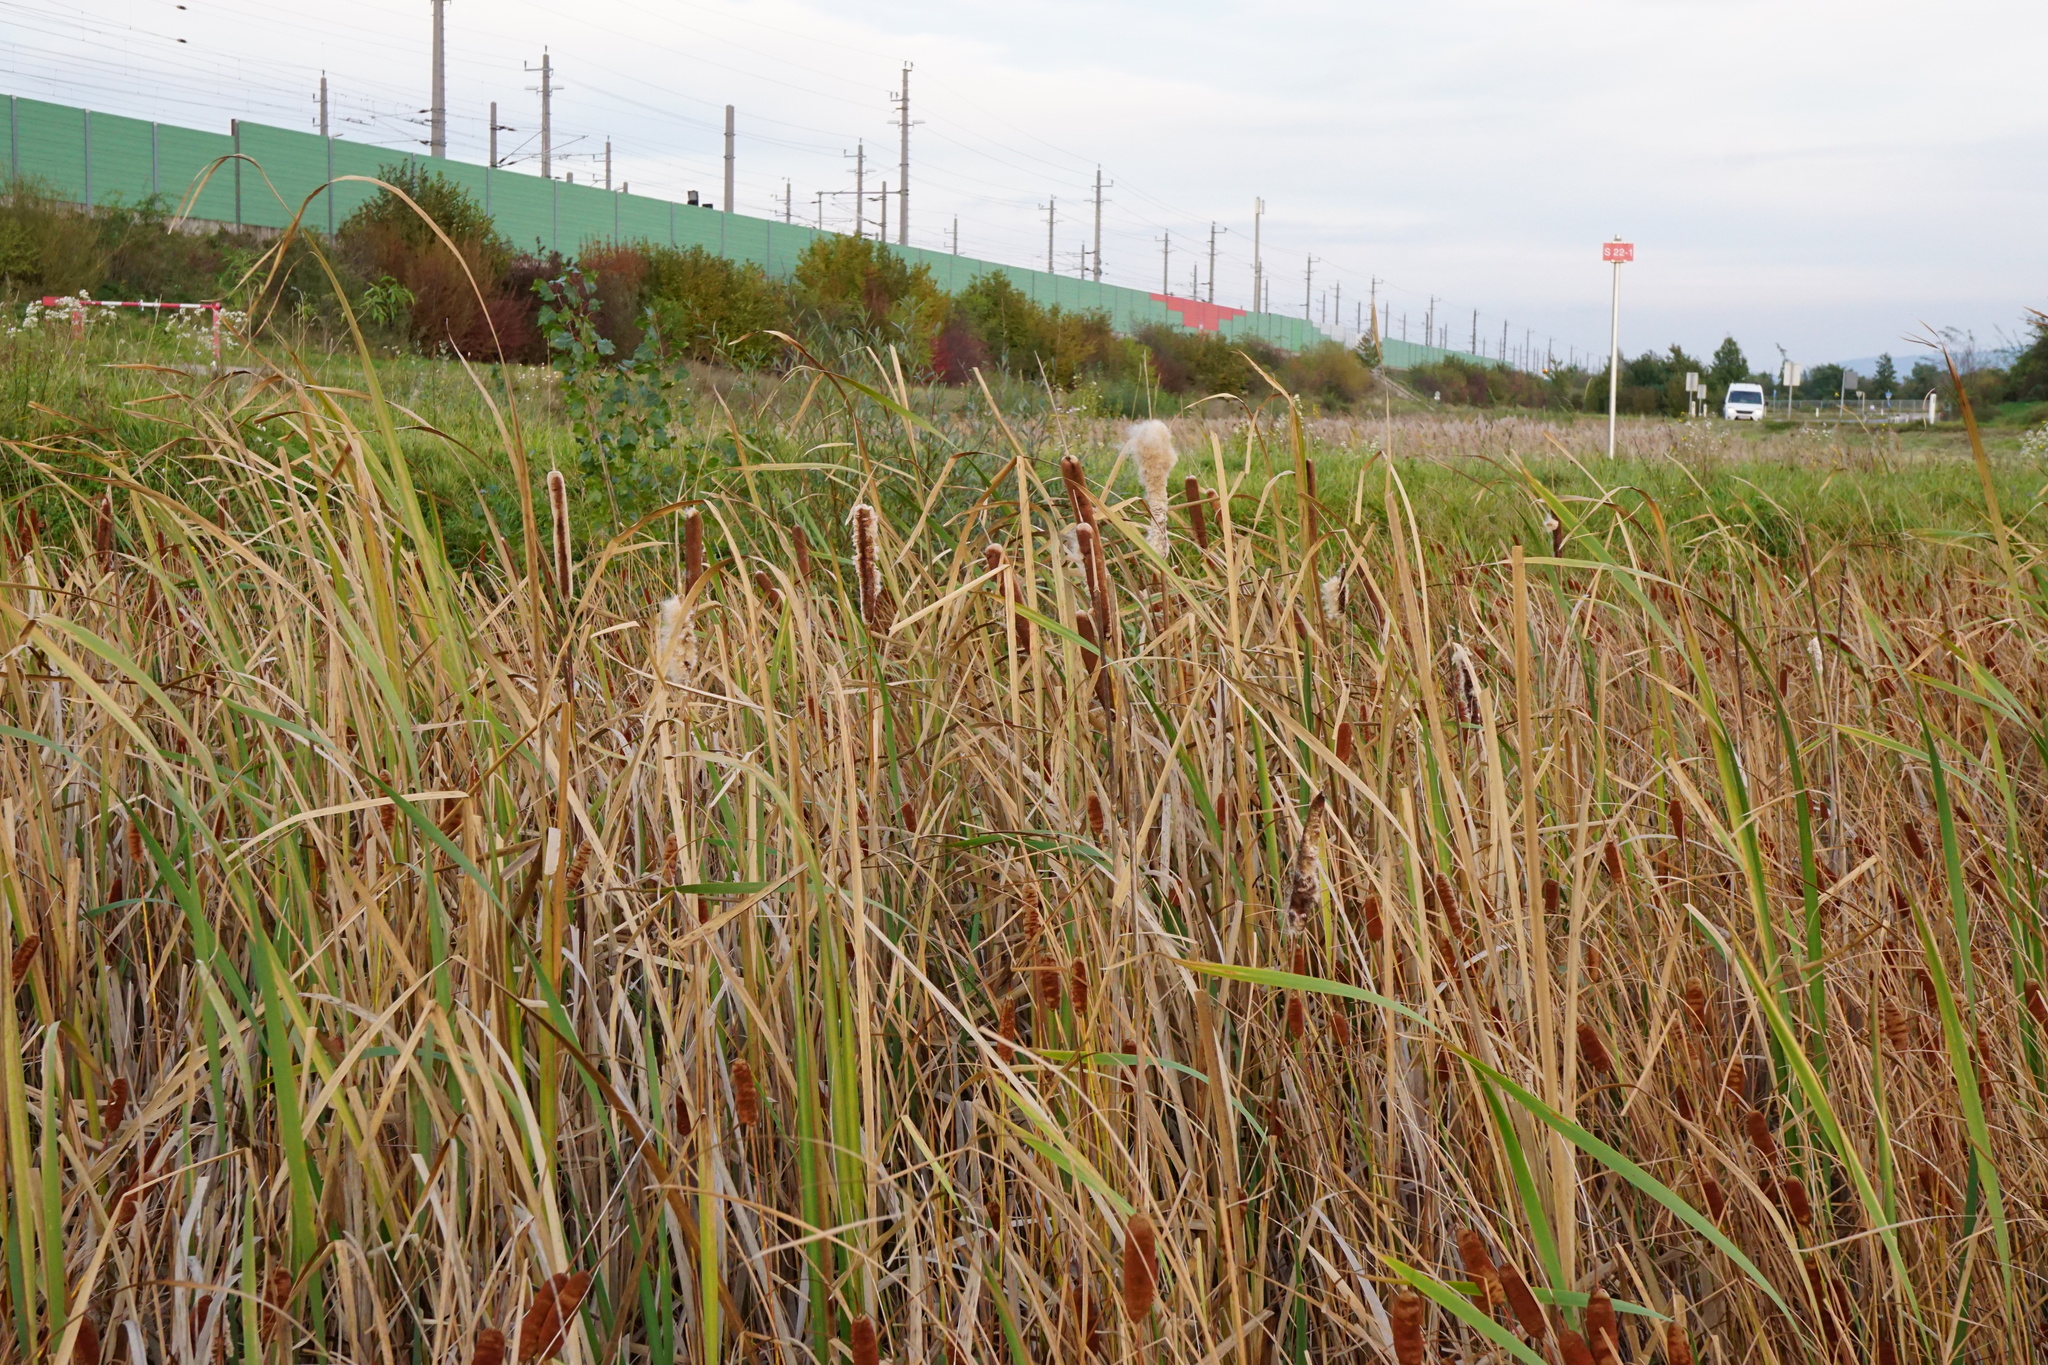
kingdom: Plantae
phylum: Tracheophyta
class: Liliopsida
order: Poales
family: Typhaceae
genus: Typha
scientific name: Typha latifolia
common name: Broadleaf cattail
